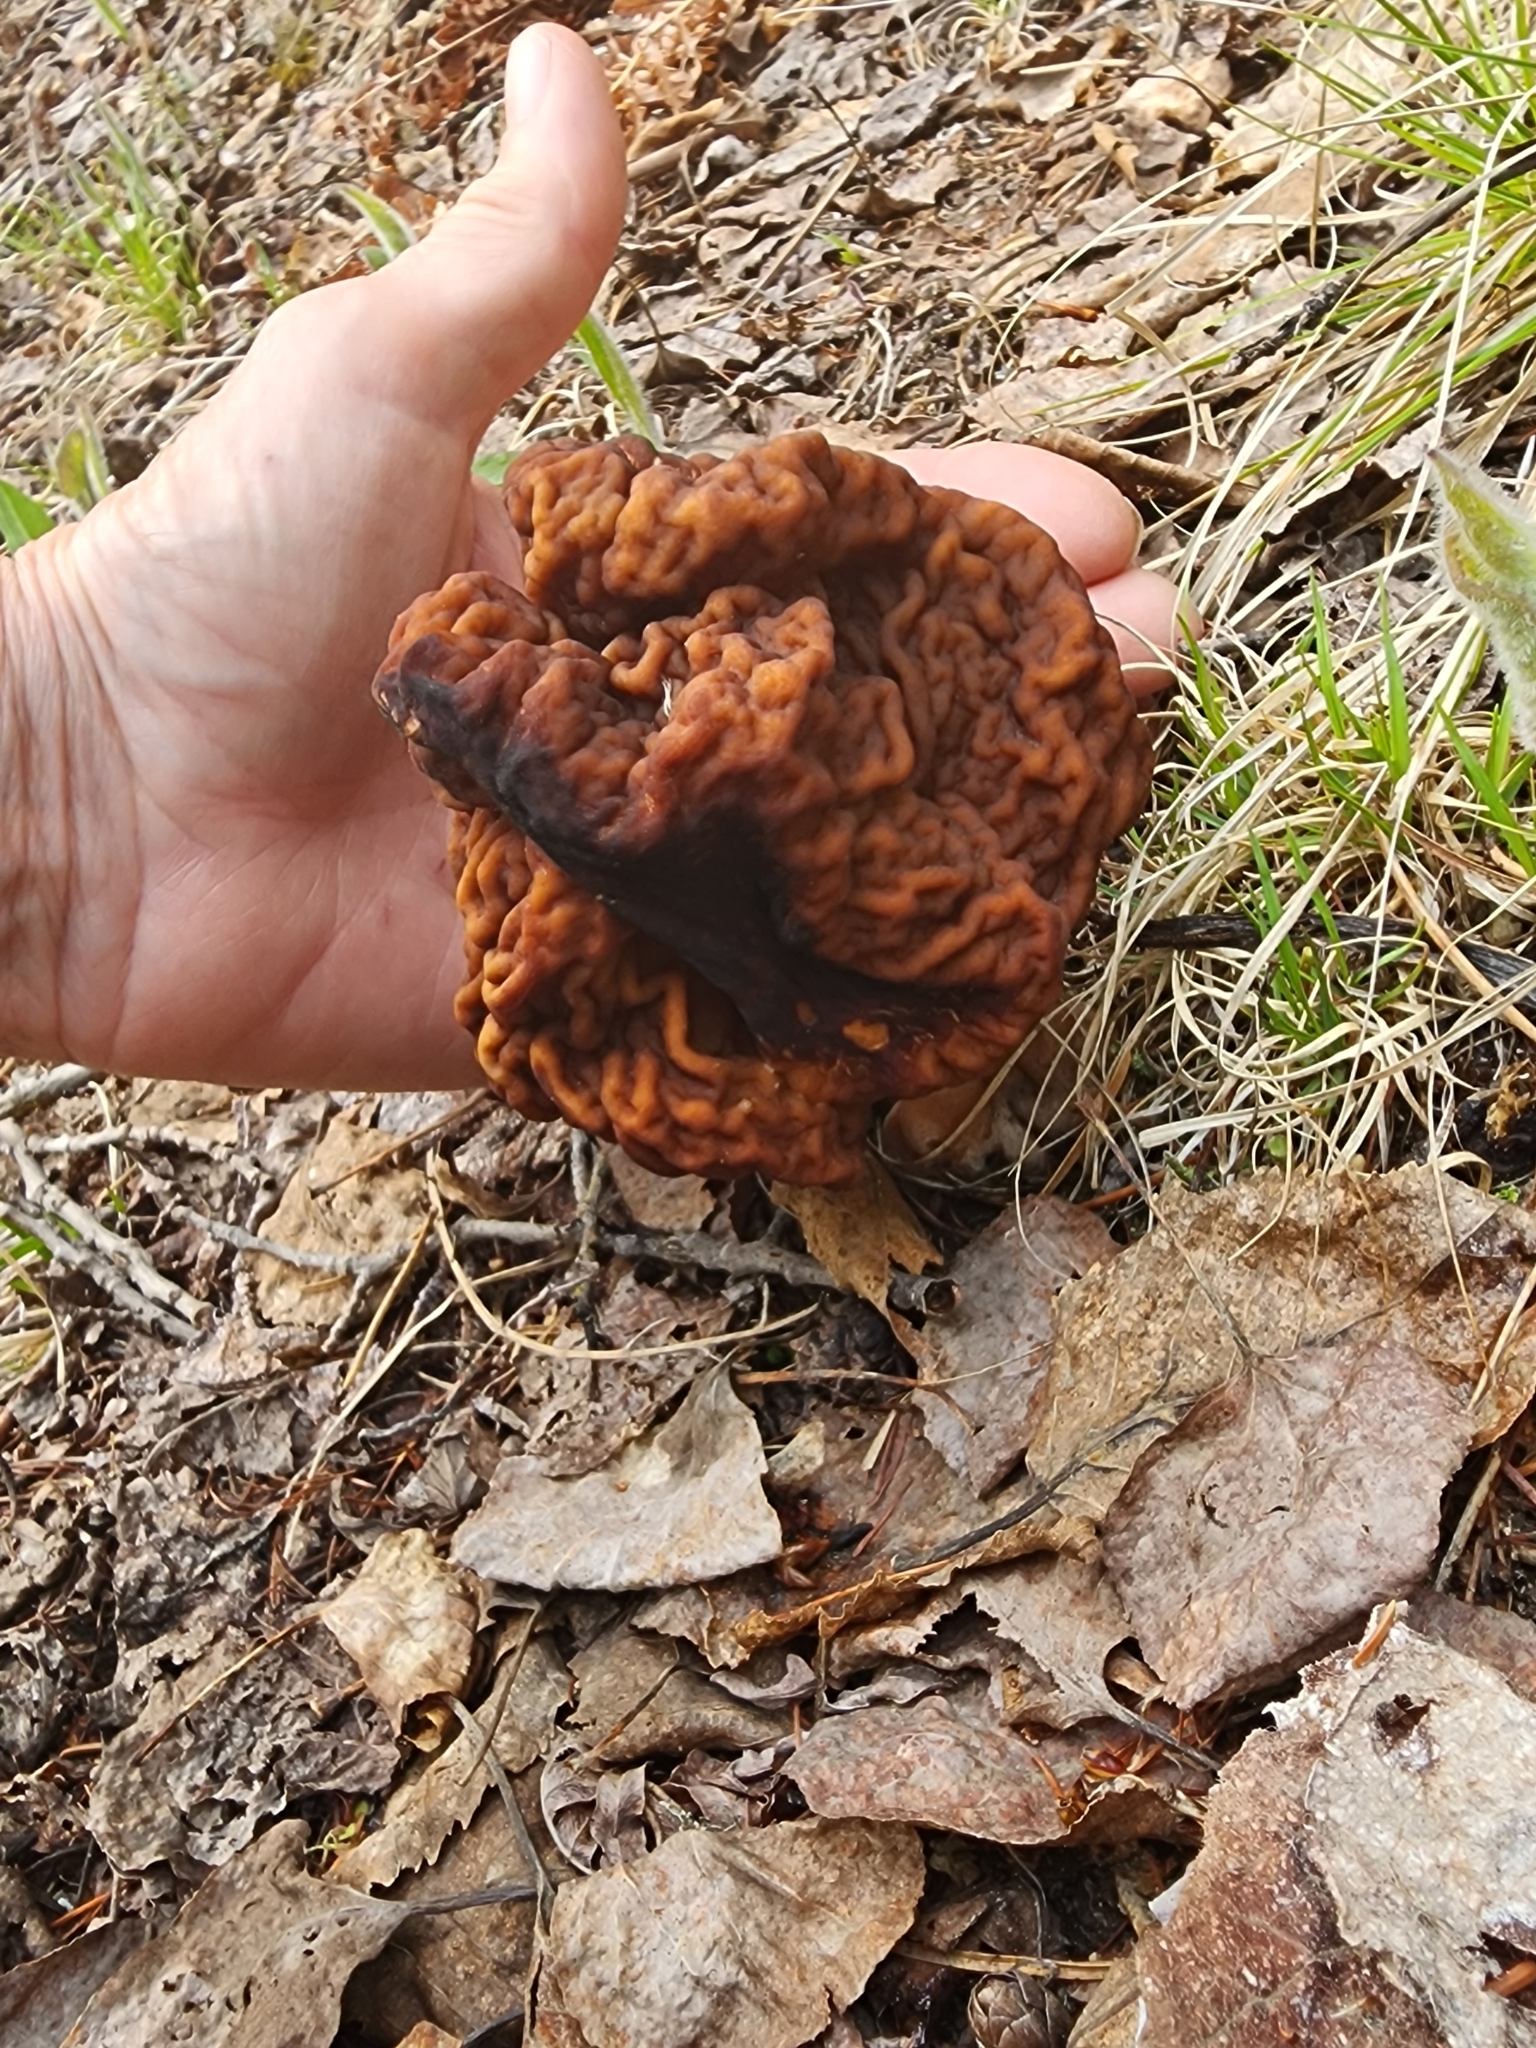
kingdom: Fungi
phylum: Ascomycota
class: Pezizomycetes
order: Pezizales
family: Discinaceae
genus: Gyromitra
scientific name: Gyromitra esculenta
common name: False morel
